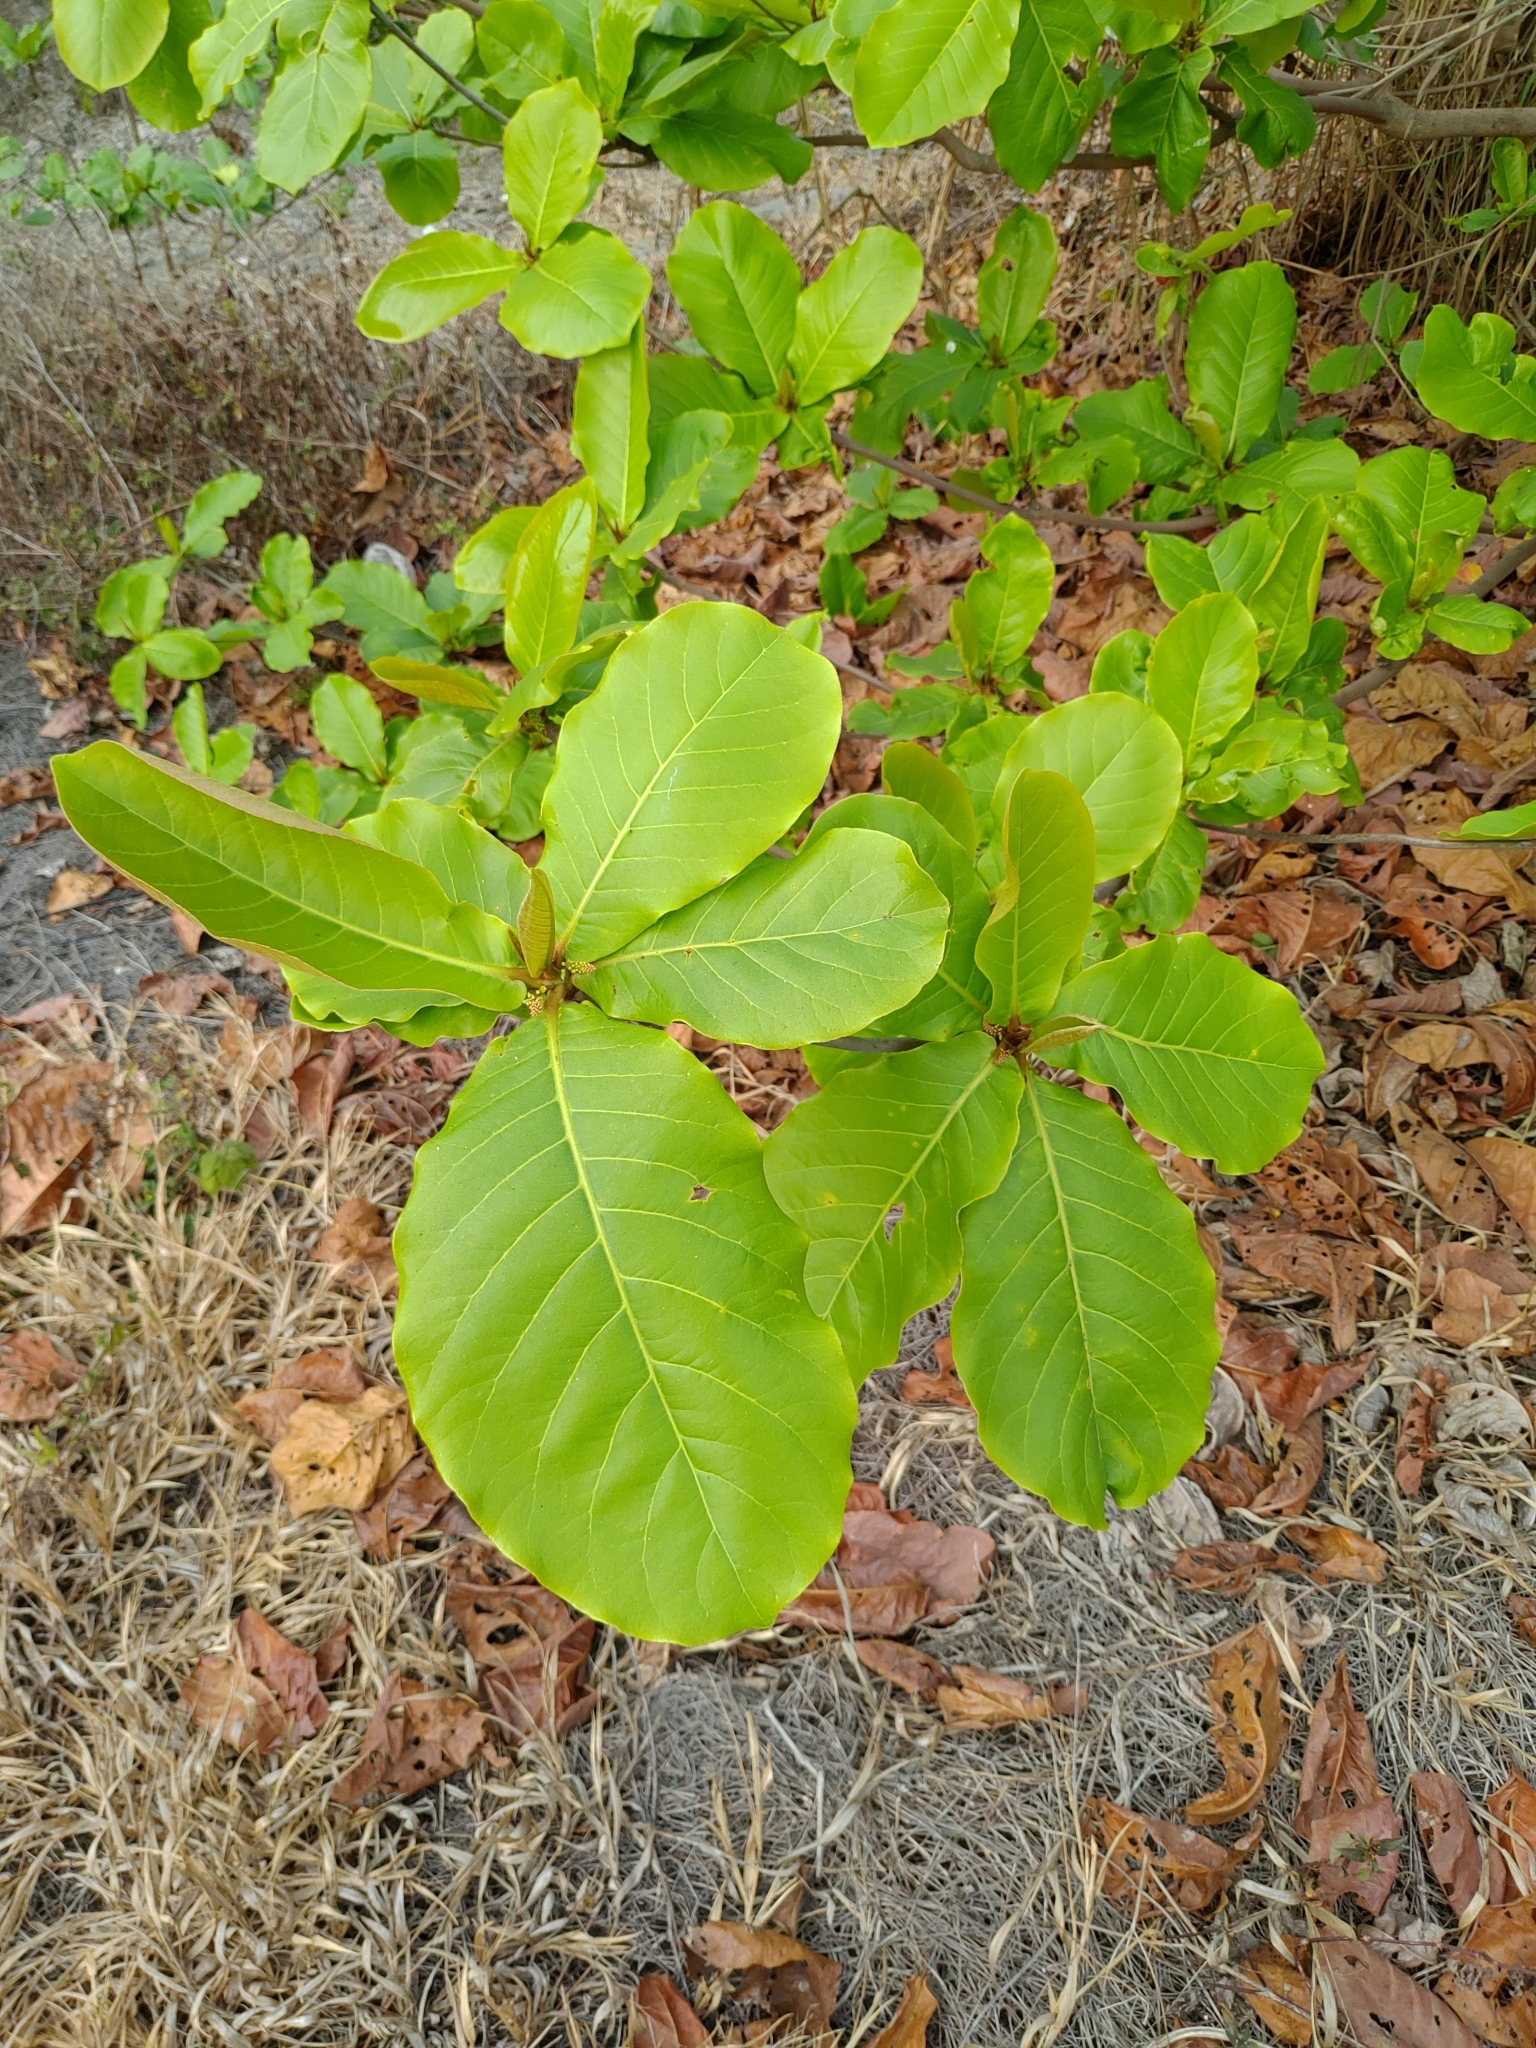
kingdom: Plantae
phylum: Tracheophyta
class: Magnoliopsida
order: Myrtales
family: Combretaceae
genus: Terminalia
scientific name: Terminalia catappa
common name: Tropical almond
